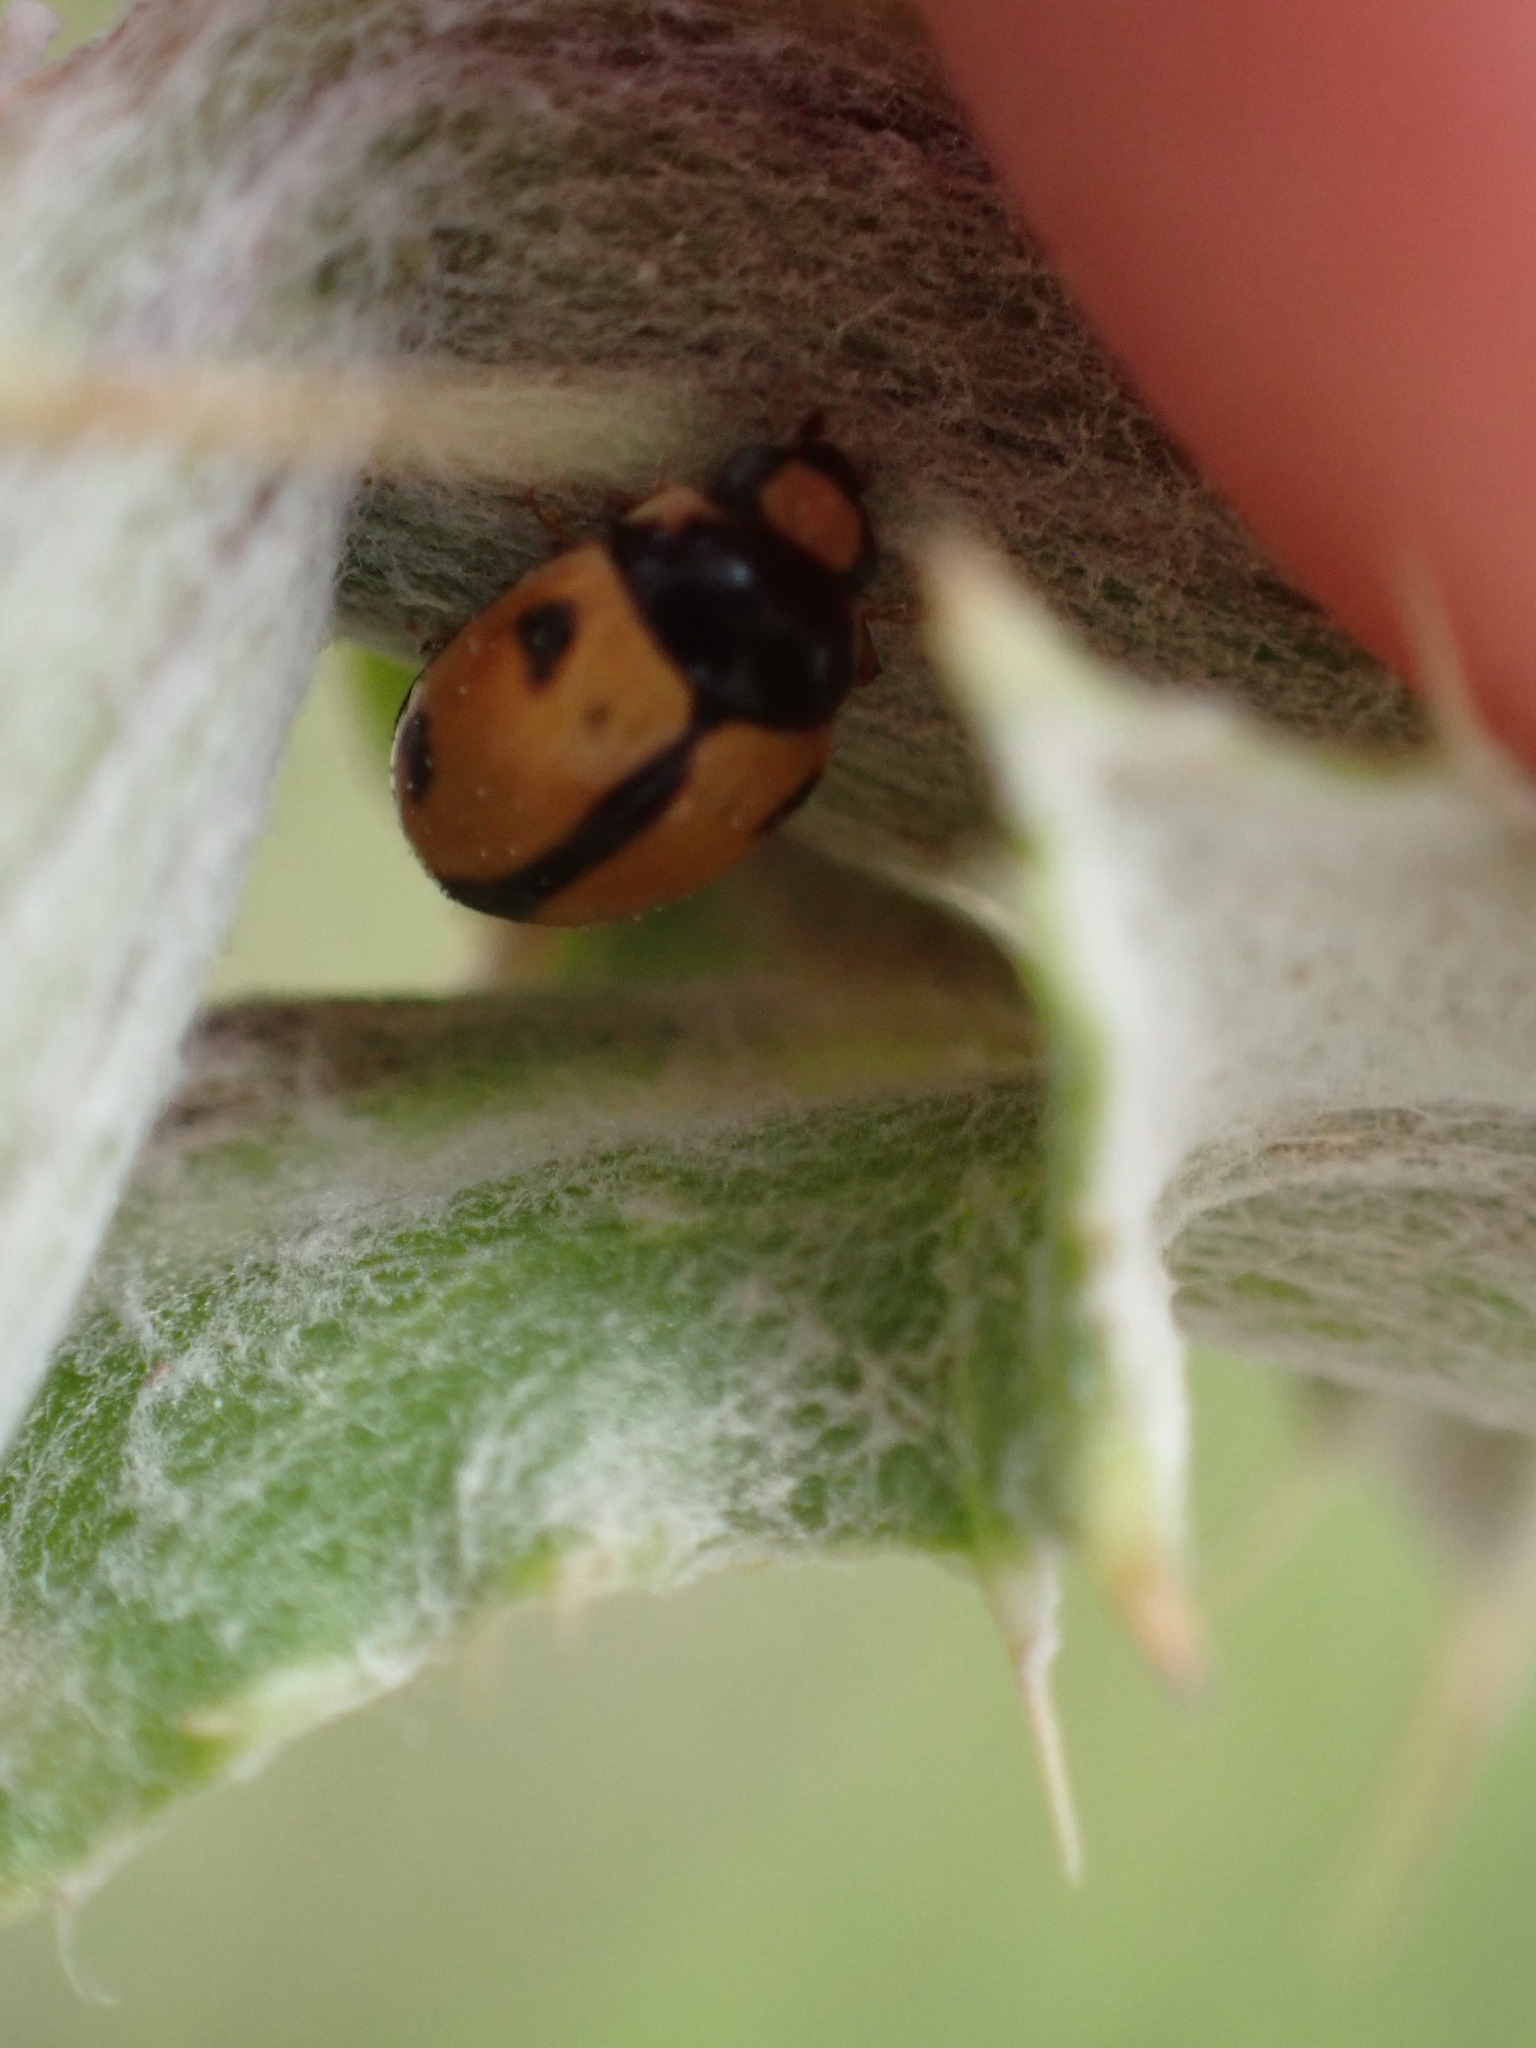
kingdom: Animalia
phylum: Arthropoda
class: Insecta
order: Coleoptera
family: Coccinellidae
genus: Brachiacantha
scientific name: Brachiacantha albifrons
